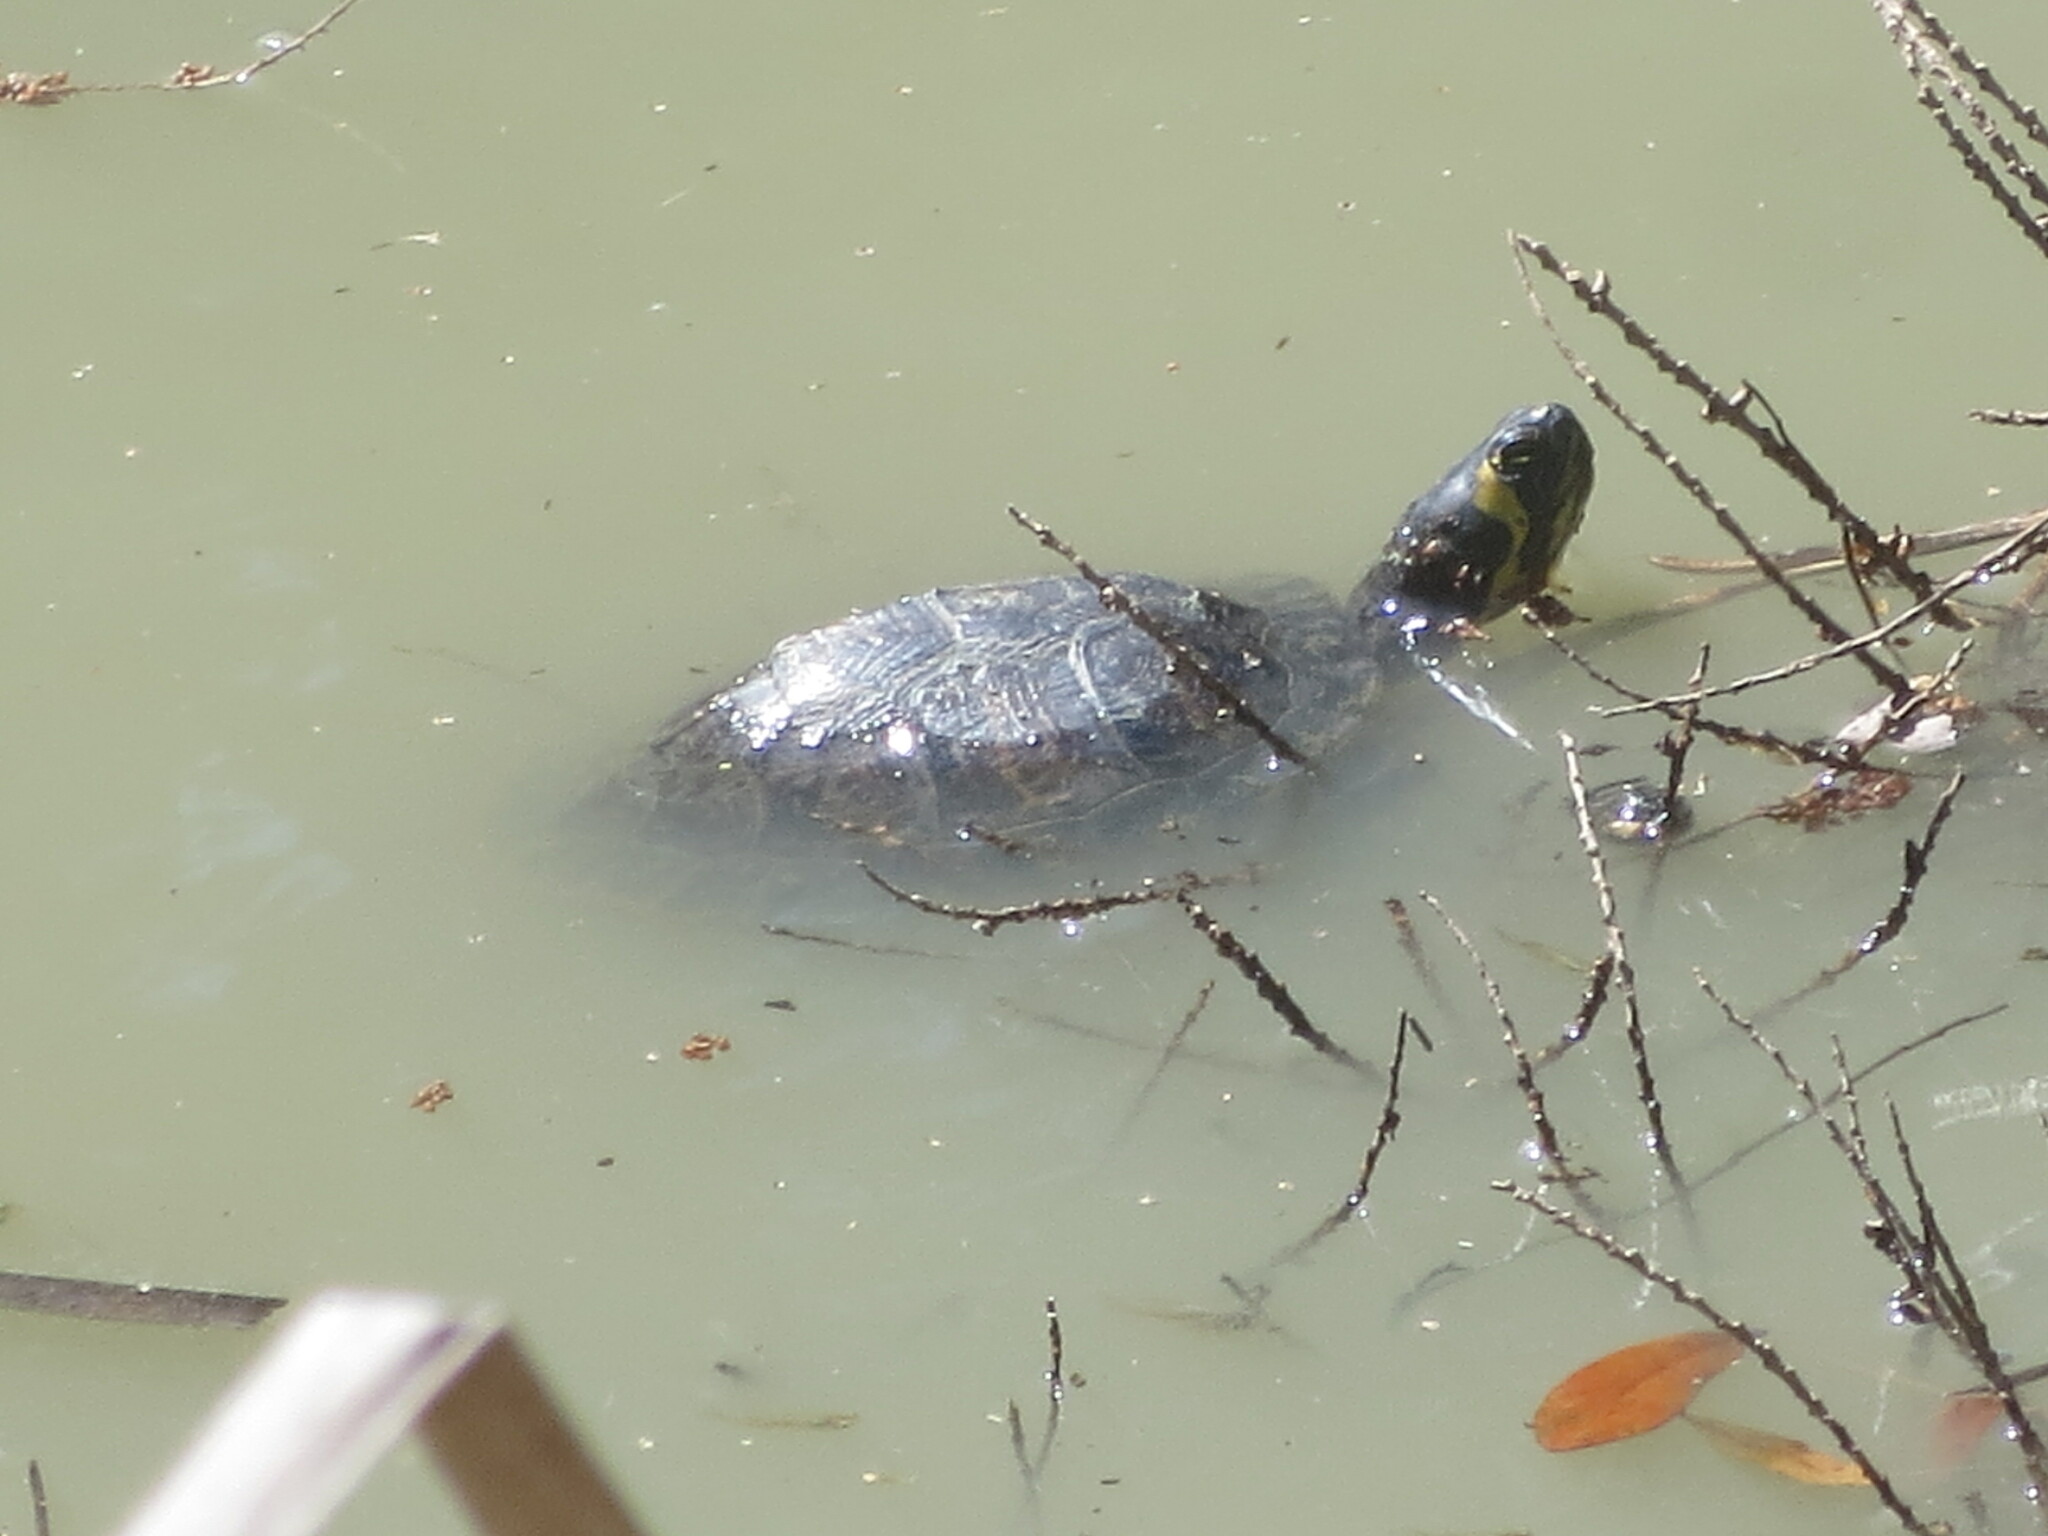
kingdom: Animalia
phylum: Chordata
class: Testudines
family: Emydidae
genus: Trachemys
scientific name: Trachemys scripta
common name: Slider
